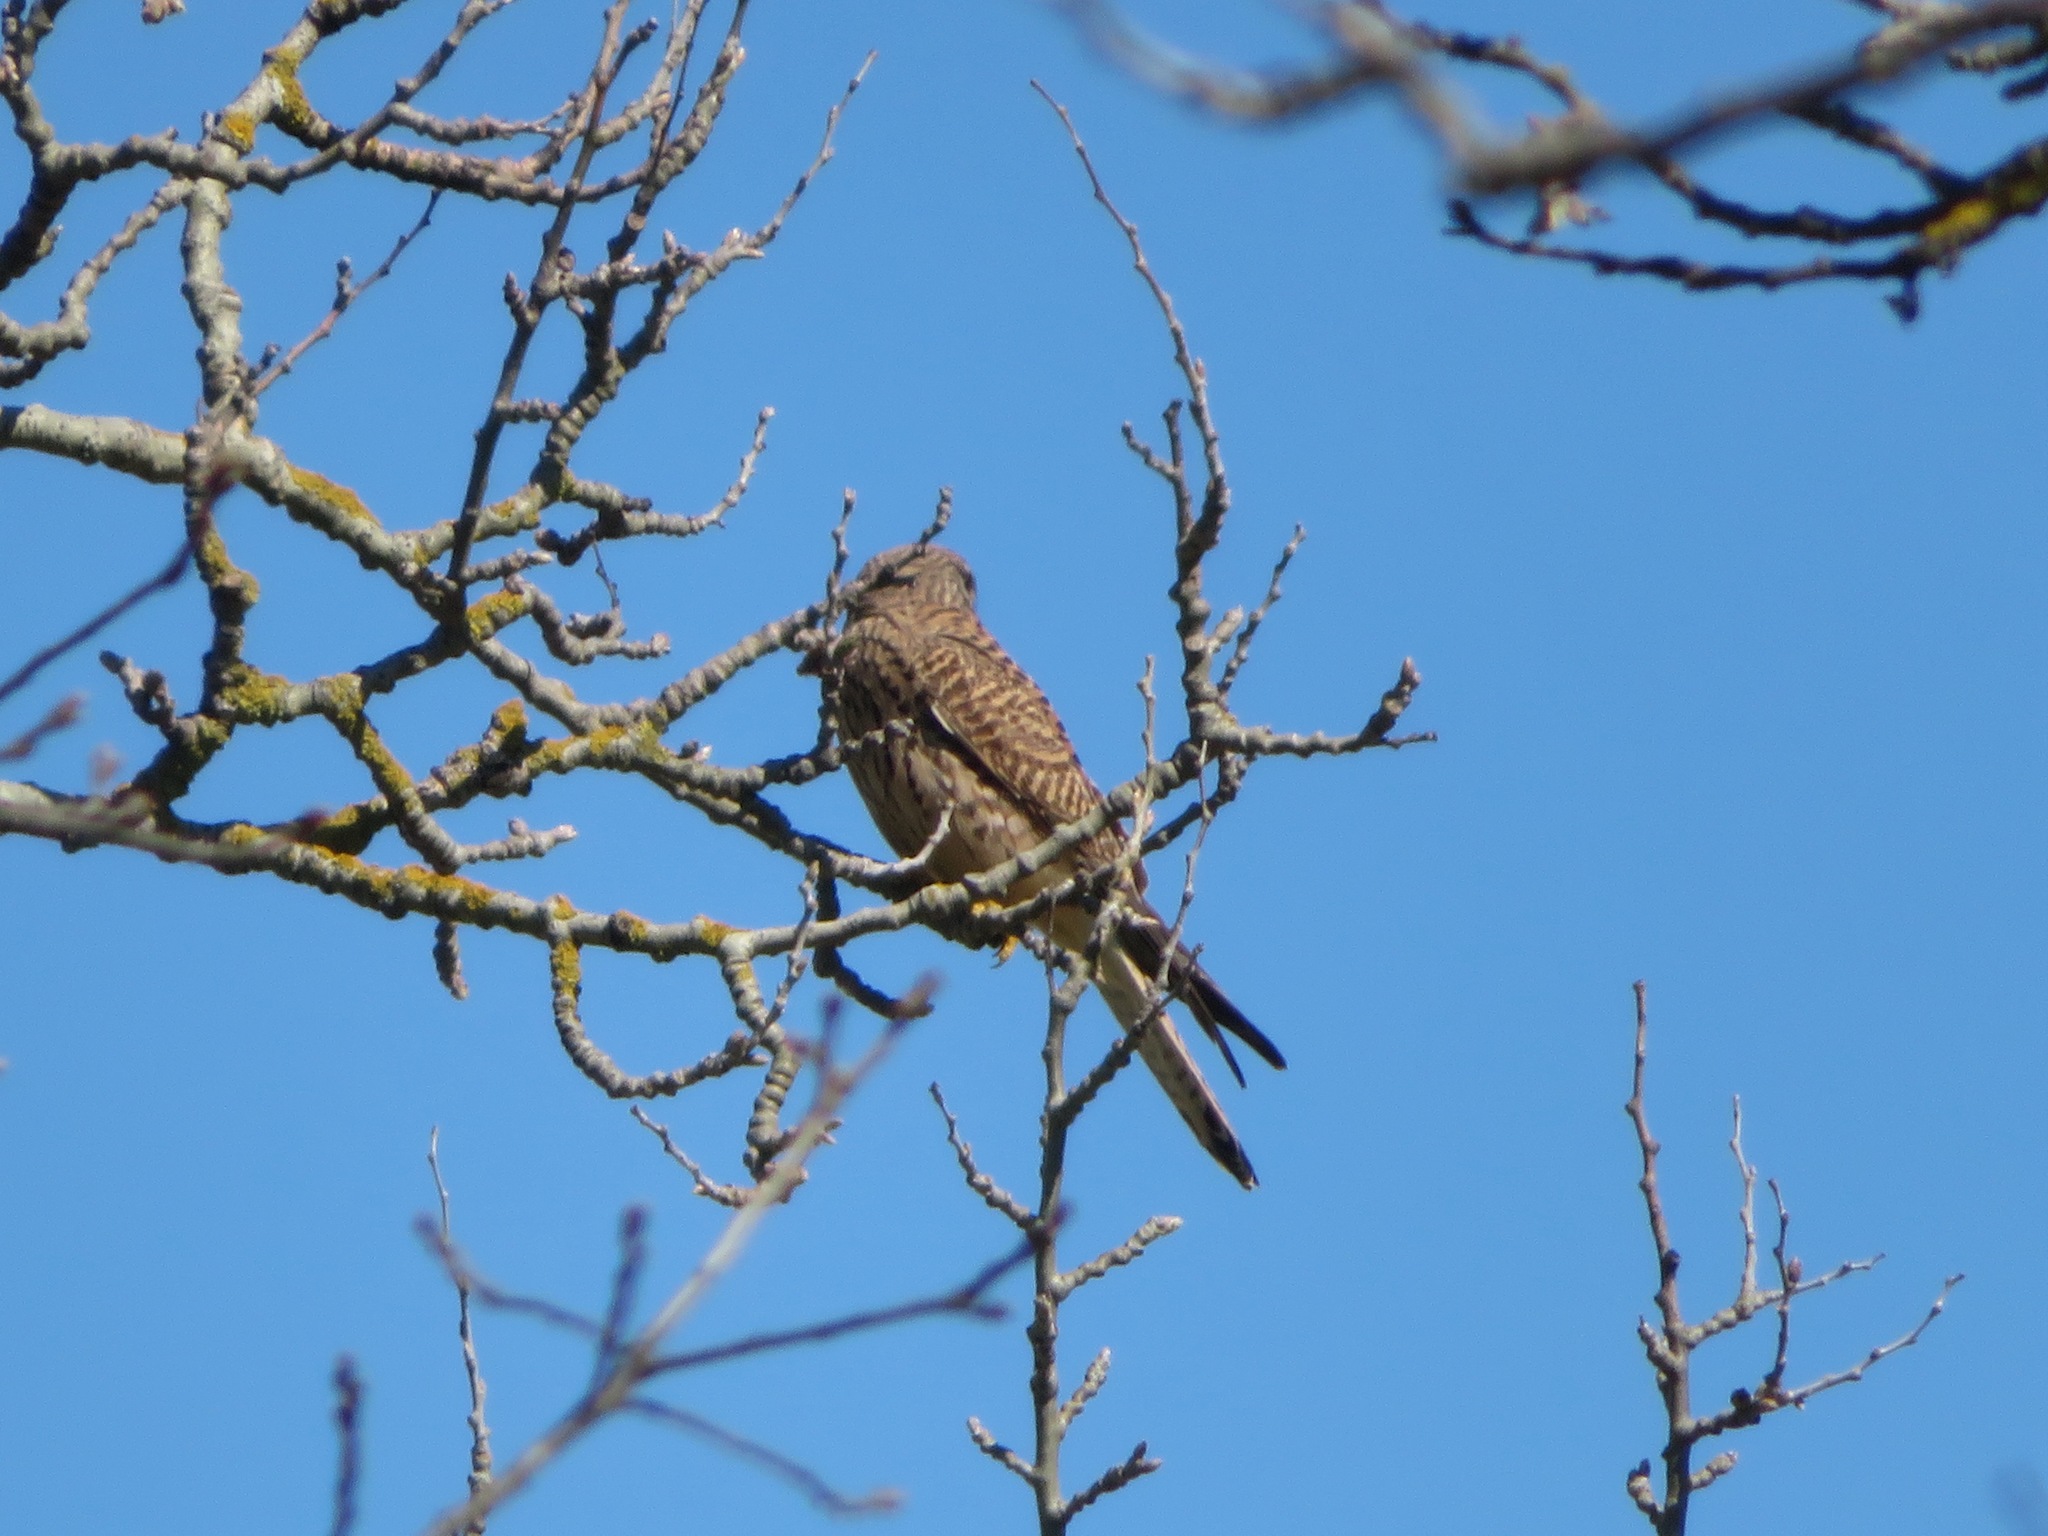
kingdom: Animalia
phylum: Chordata
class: Aves
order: Falconiformes
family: Falconidae
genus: Falco
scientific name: Falco tinnunculus
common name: Common kestrel
